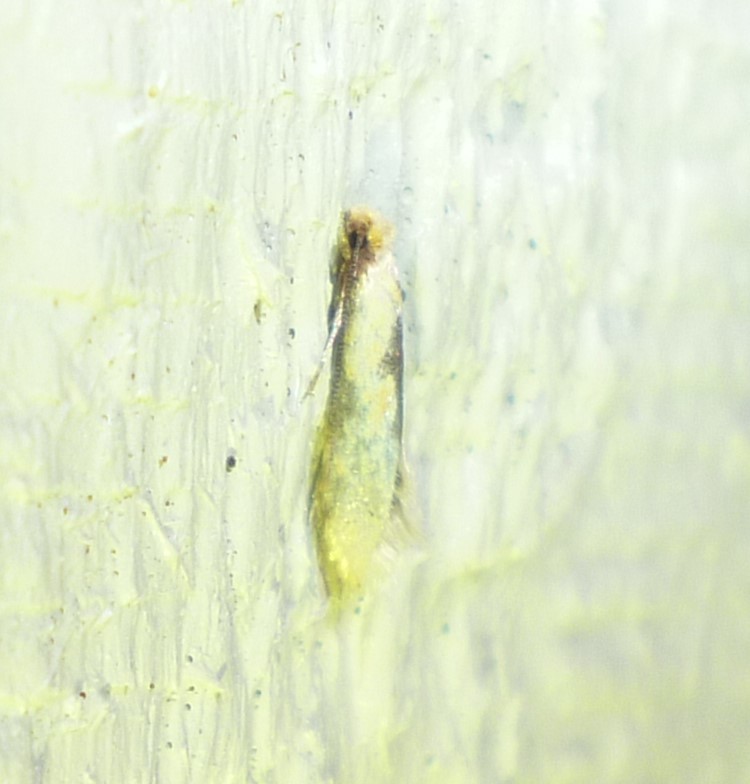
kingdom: Animalia
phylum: Arthropoda
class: Insecta
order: Lepidoptera
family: Meessiidae
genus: Hybroma
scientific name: Hybroma servulella
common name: Yellow wave moth
